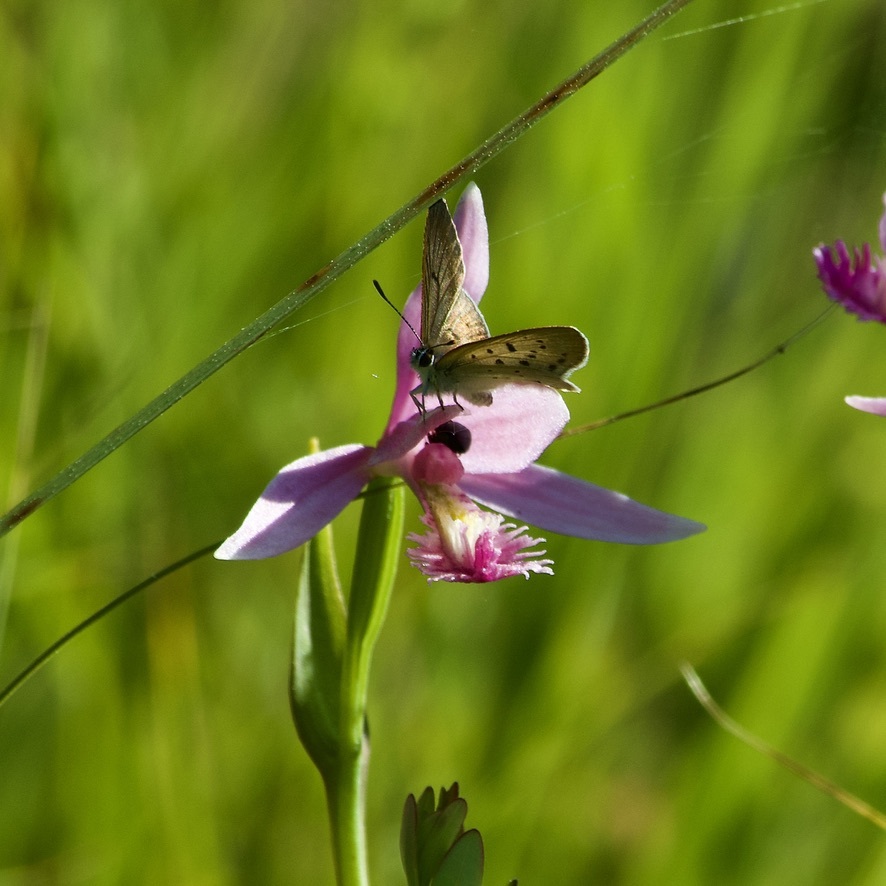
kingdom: Animalia
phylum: Arthropoda
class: Insecta
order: Lepidoptera
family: Lycaenidae
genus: Tharsalea
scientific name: Tharsalea epixanthe
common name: Bog copper
